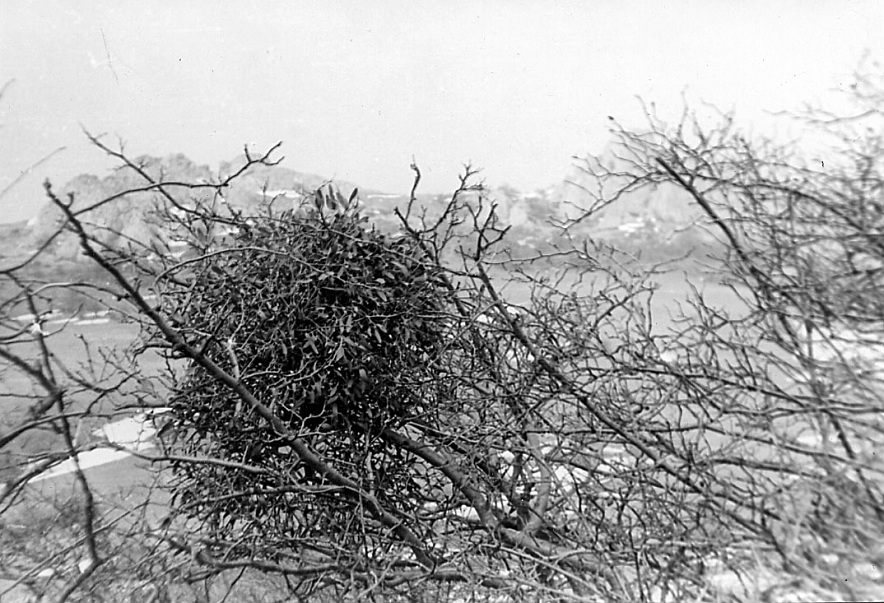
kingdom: Plantae
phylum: Tracheophyta
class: Magnoliopsida
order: Santalales
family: Viscaceae
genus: Viscum
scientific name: Viscum album
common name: Mistletoe
